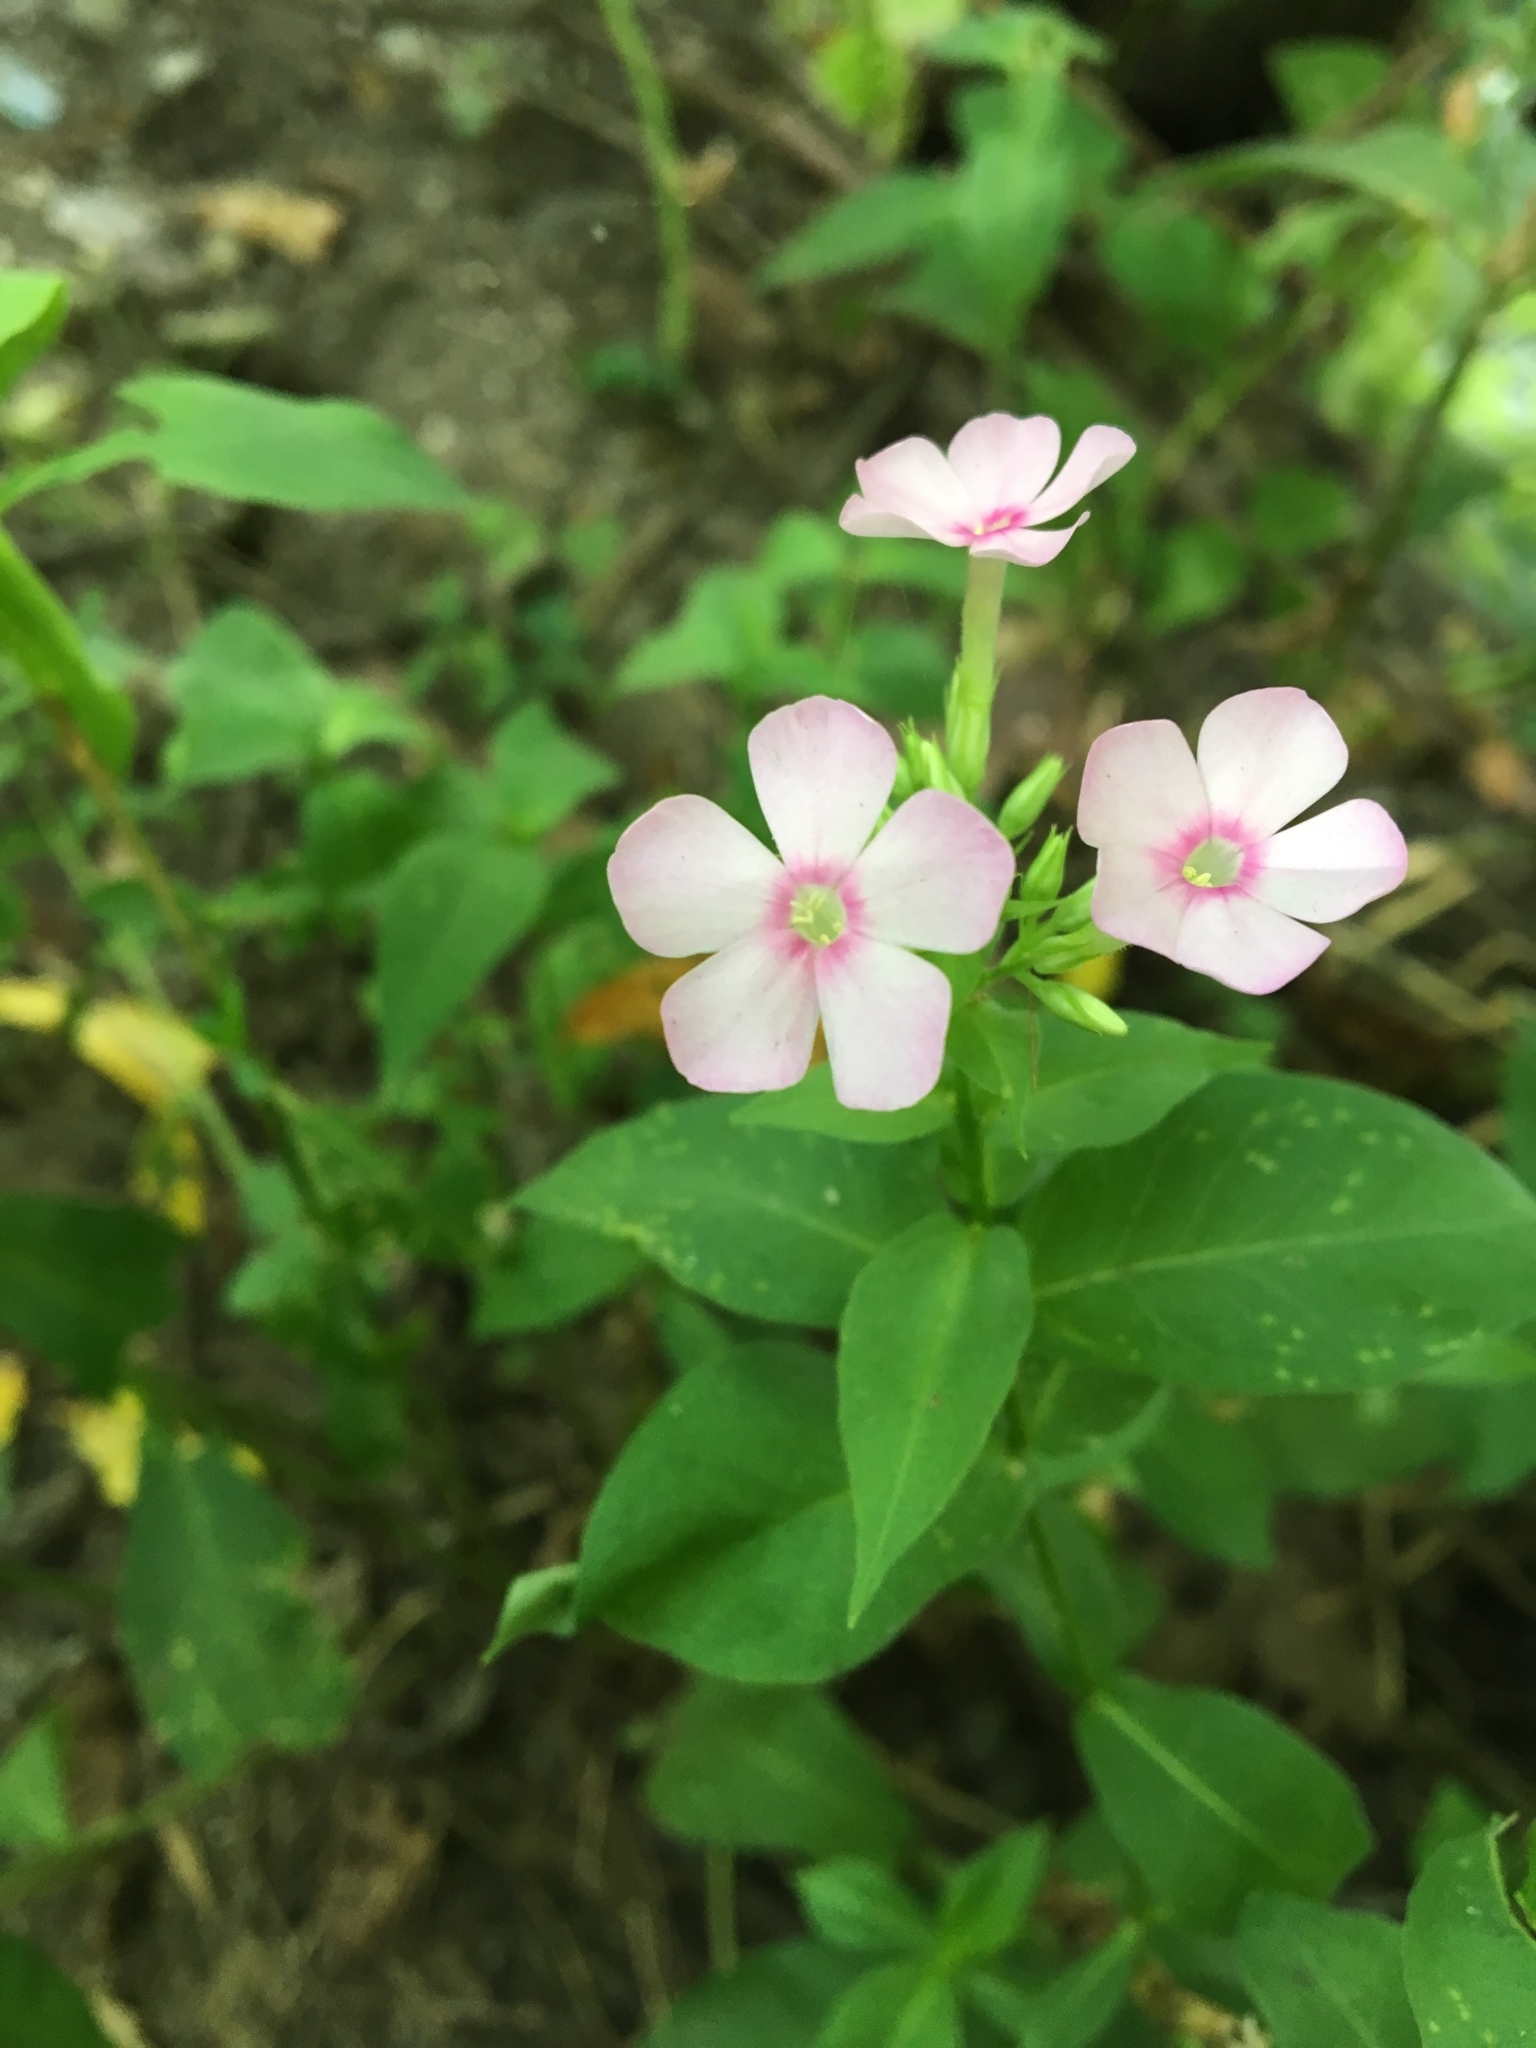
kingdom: Plantae
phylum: Tracheophyta
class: Magnoliopsida
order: Ericales
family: Polemoniaceae
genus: Phlox
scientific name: Phlox paniculata
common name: Fall phlox
